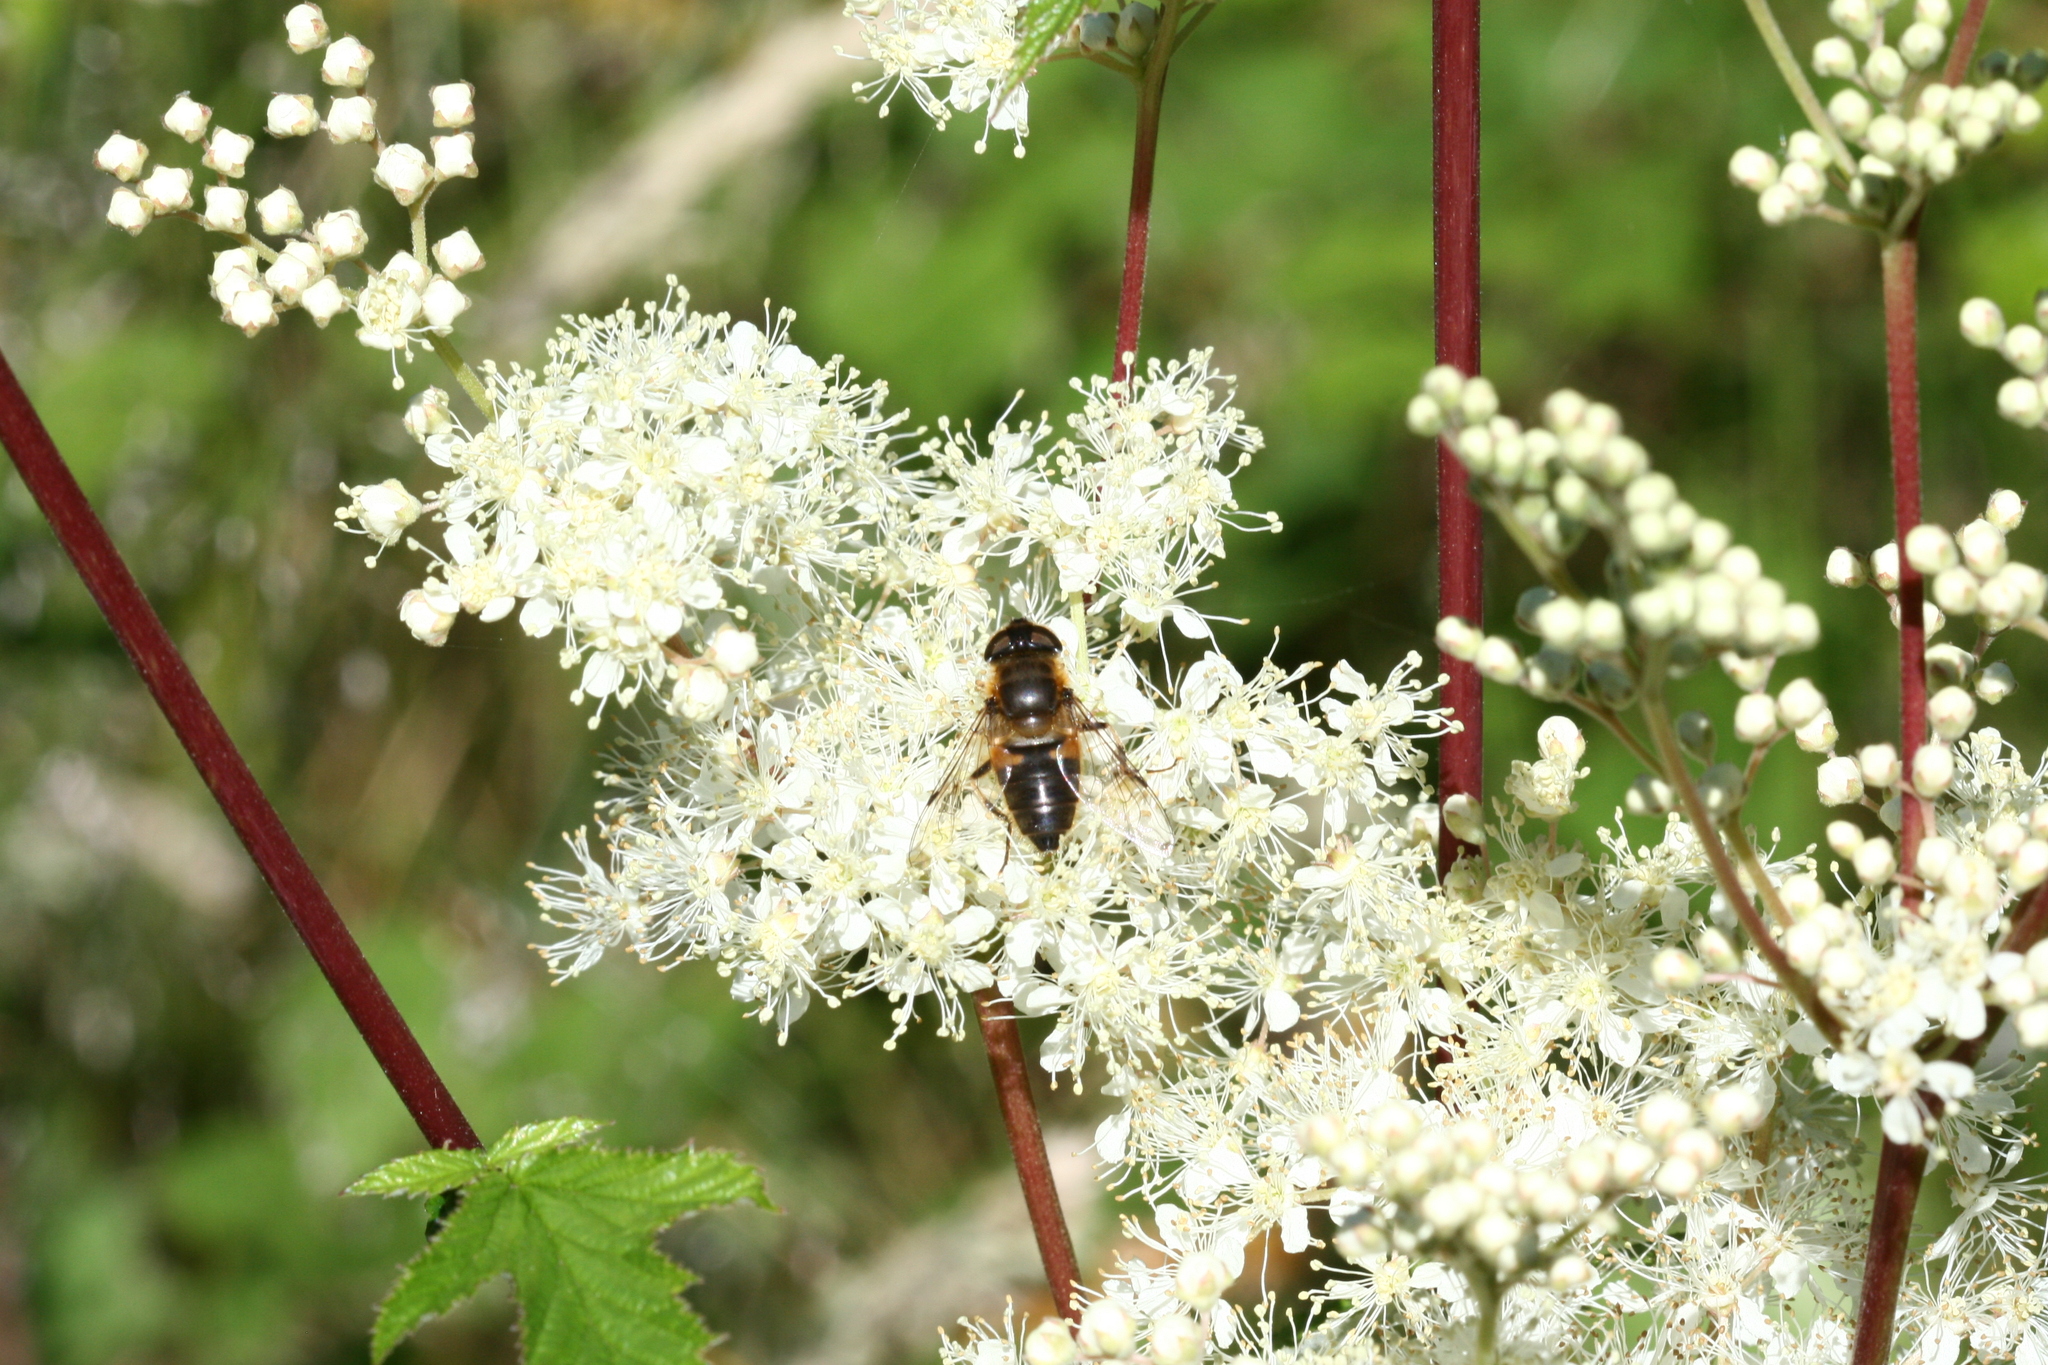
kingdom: Animalia
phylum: Arthropoda
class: Insecta
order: Diptera
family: Syrphidae
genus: Eristalis
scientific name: Eristalis pertinax
